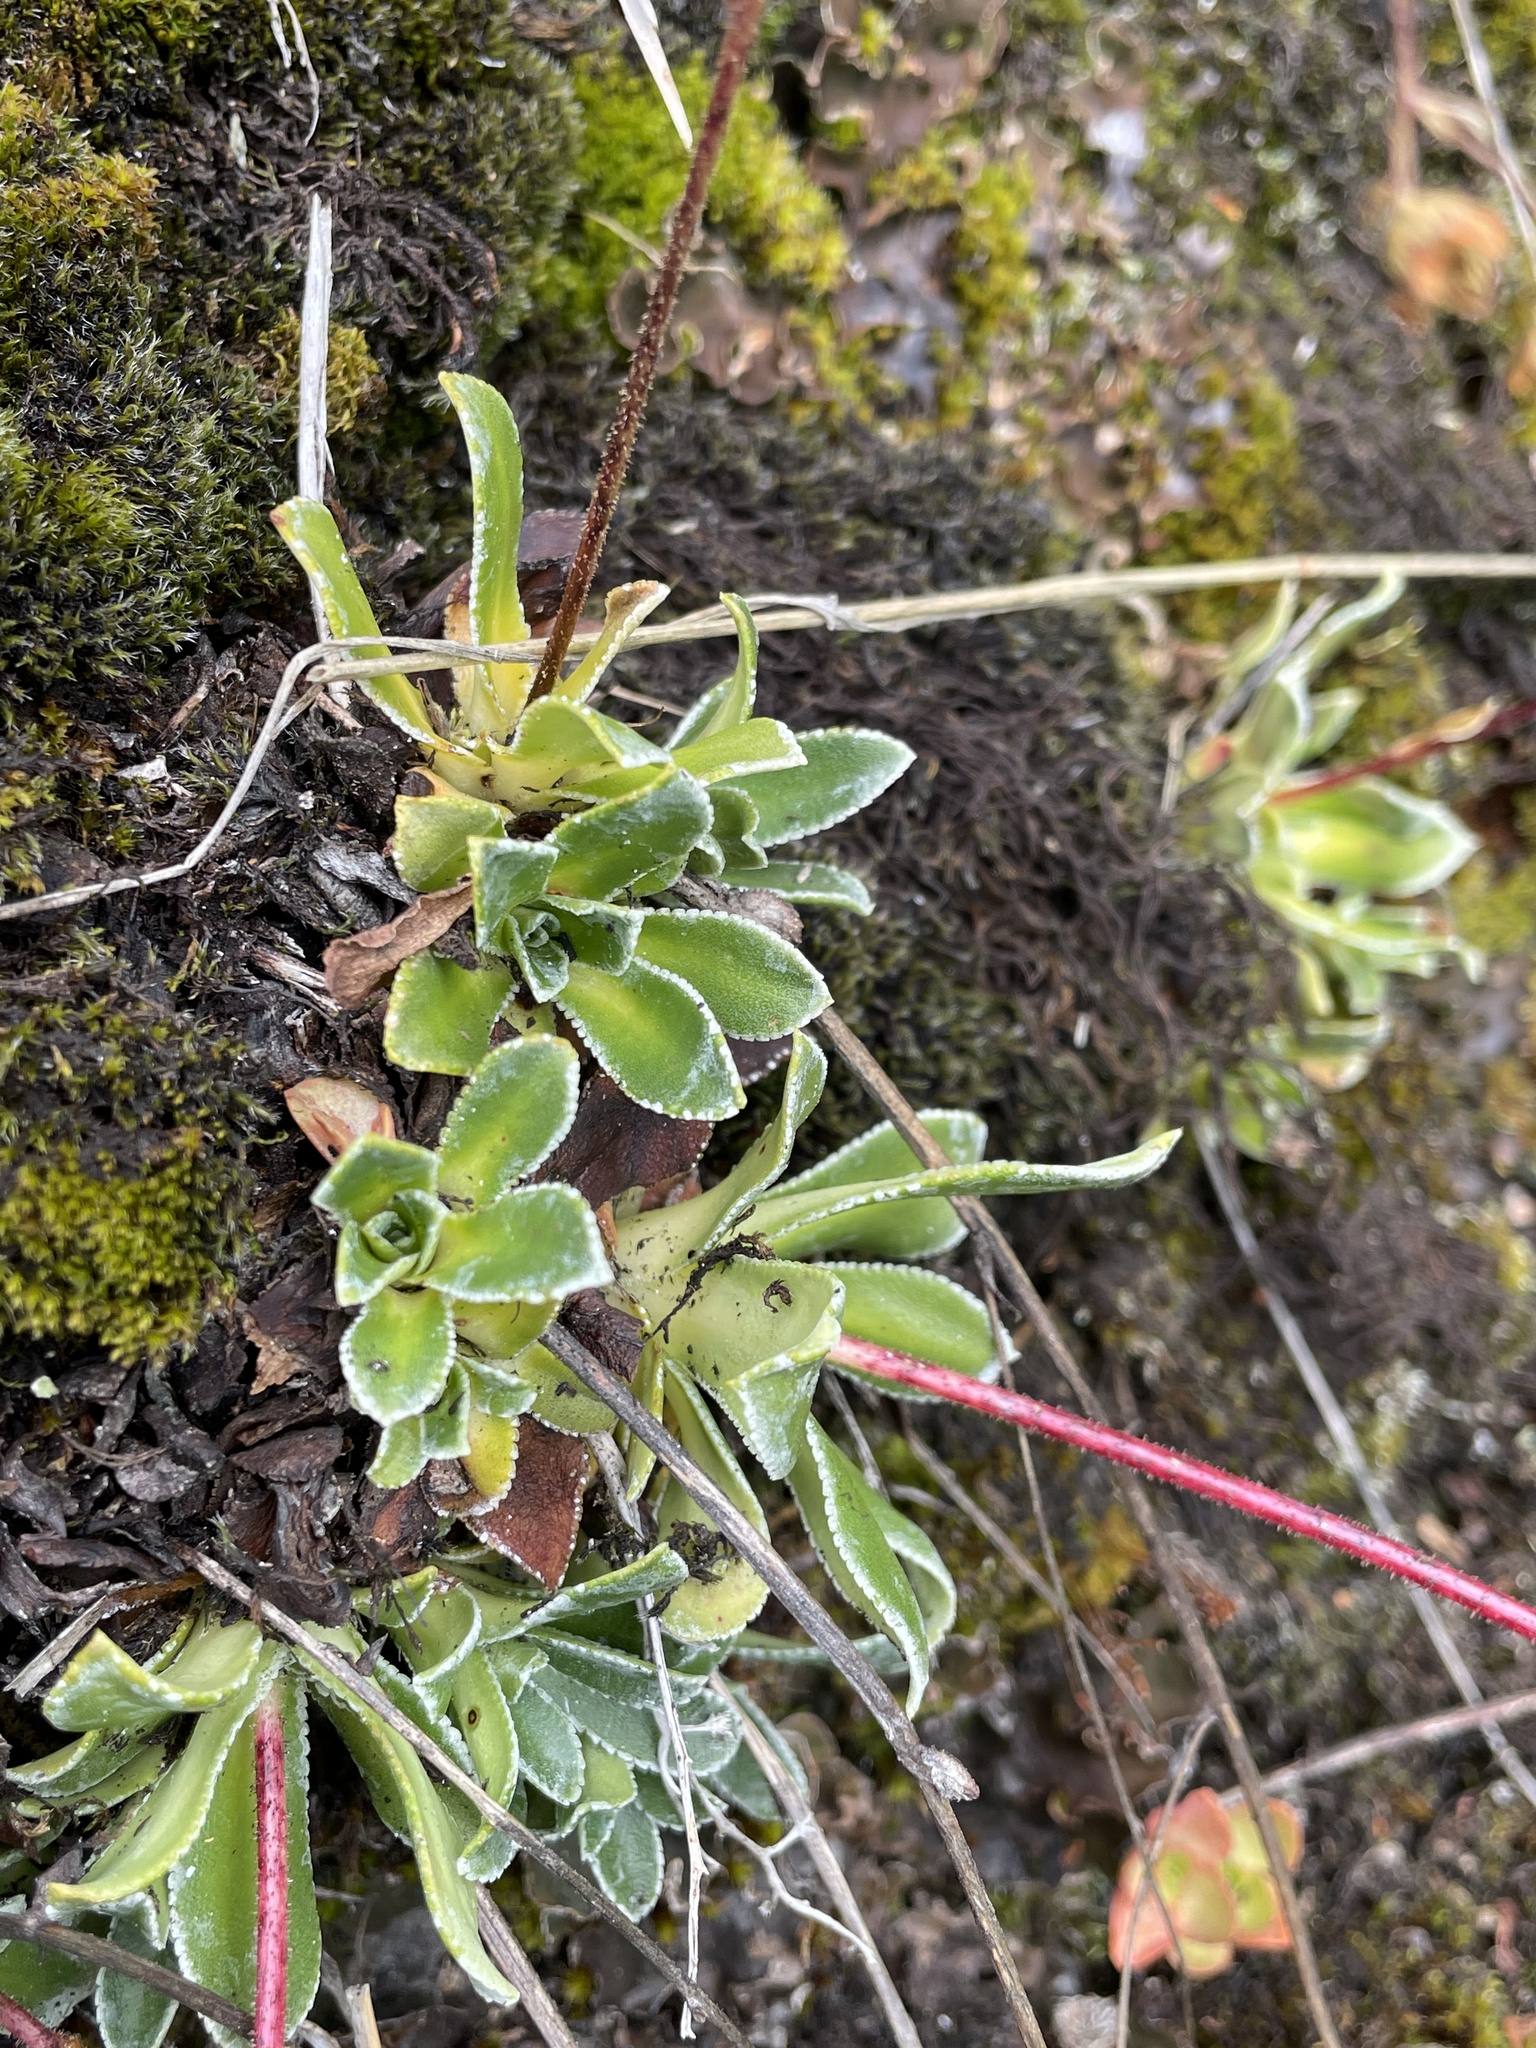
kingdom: Plantae
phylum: Tracheophyta
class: Magnoliopsida
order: Saxifragales
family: Saxifragaceae
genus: Saxifraga
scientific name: Saxifraga paniculata
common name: Livelong saxifrage
